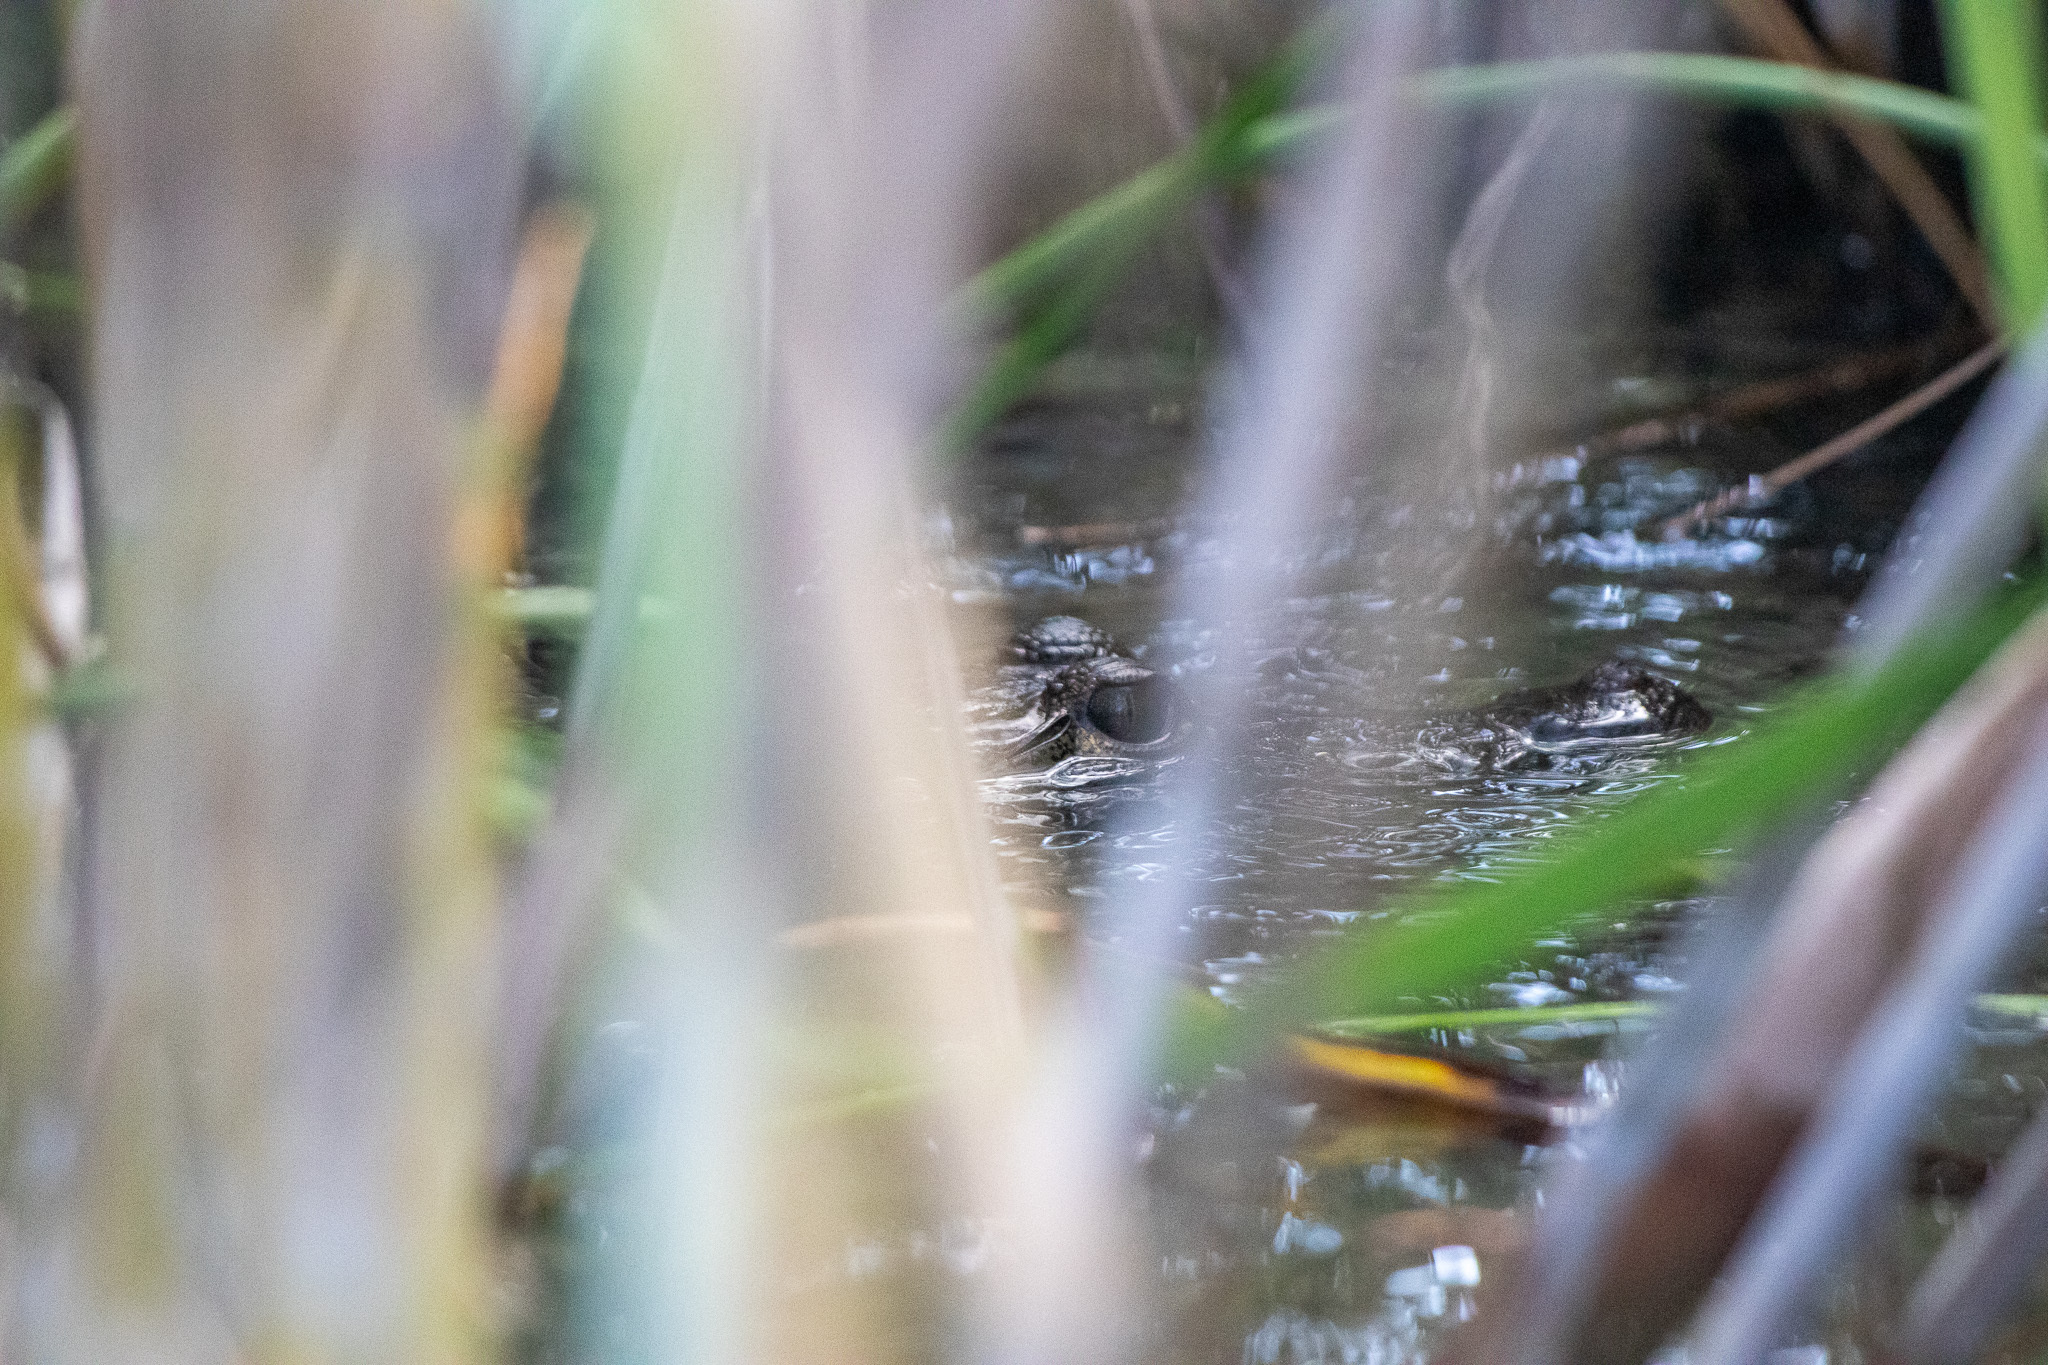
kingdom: Animalia
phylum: Chordata
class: Crocodylia
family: Crocodylidae
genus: Crocodylus
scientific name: Crocodylus moreletii
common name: Morelet's crocodile
